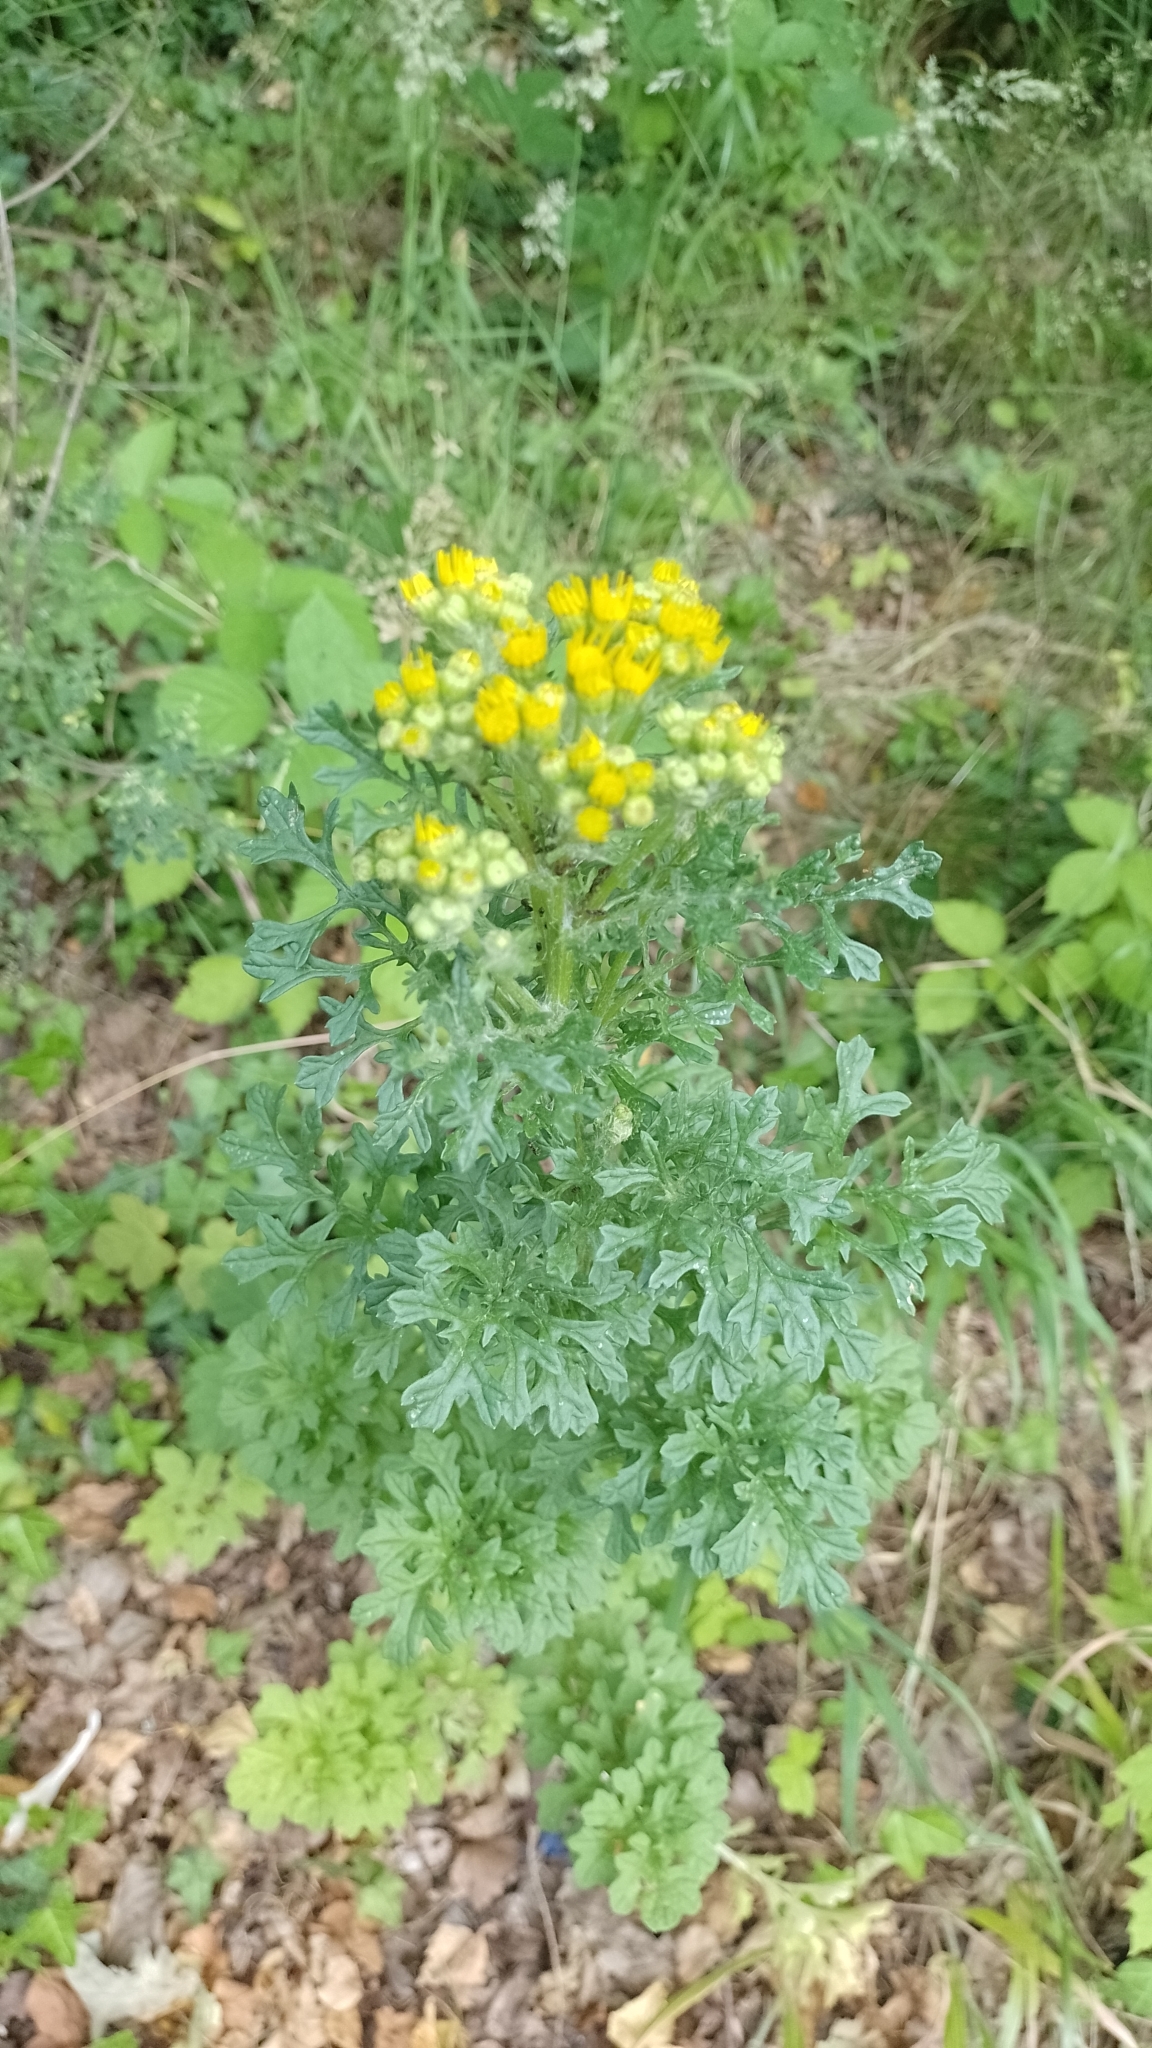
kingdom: Plantae
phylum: Tracheophyta
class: Magnoliopsida
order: Asterales
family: Asteraceae
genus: Jacobaea
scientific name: Jacobaea vulgaris
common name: Stinking willie
